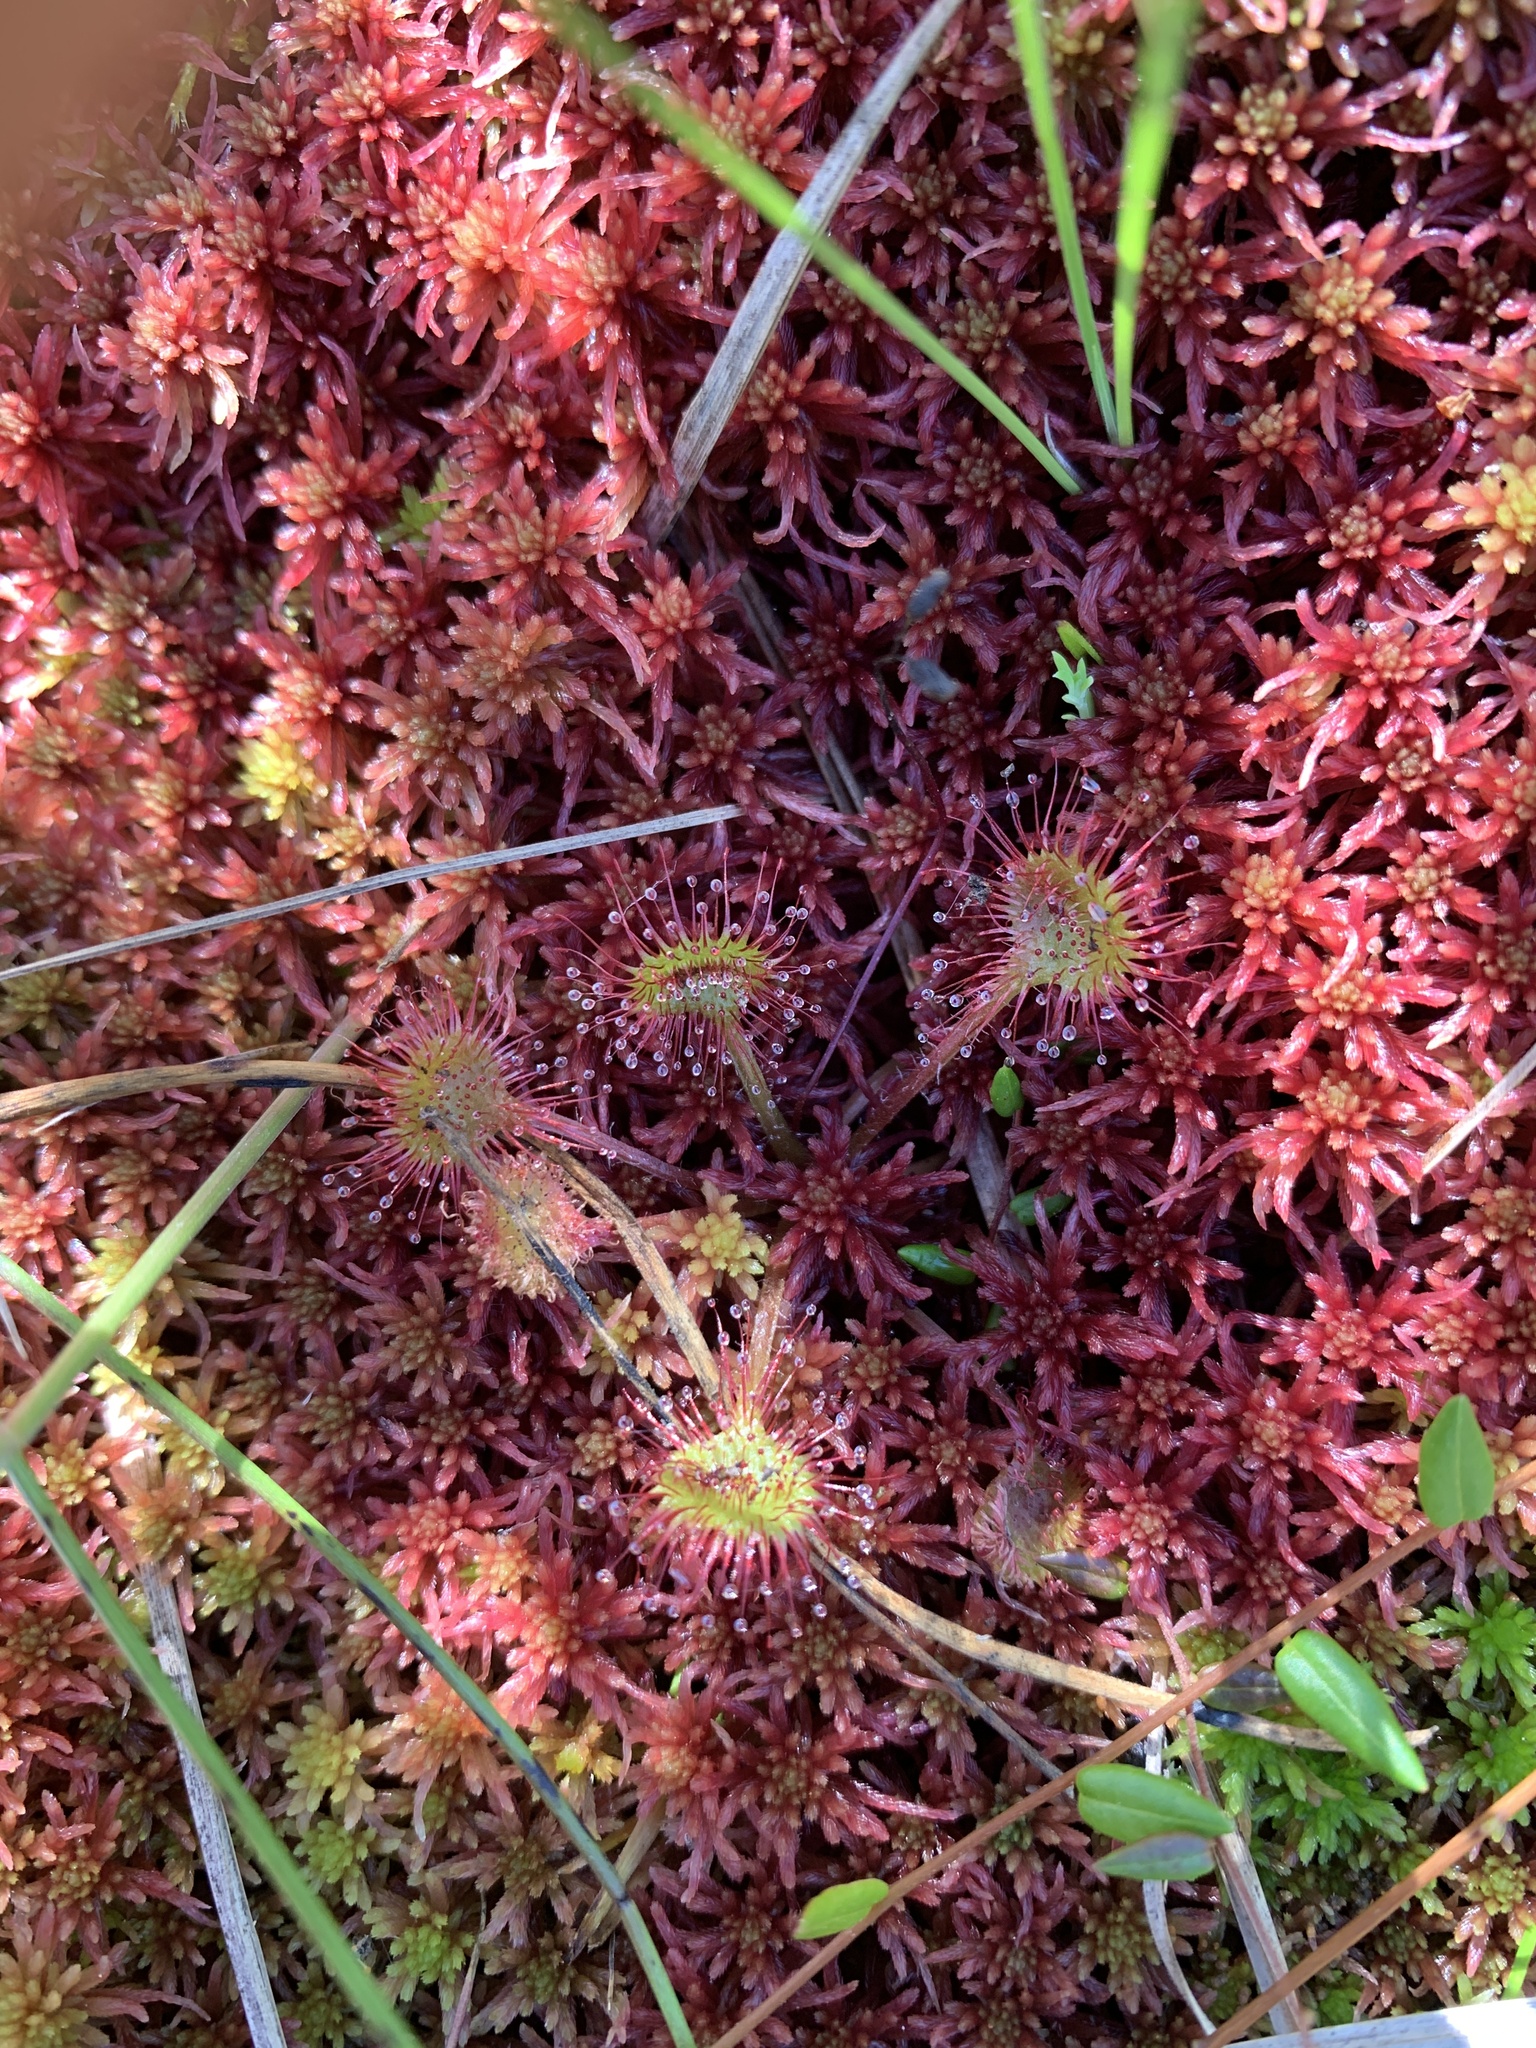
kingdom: Plantae
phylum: Bryophyta
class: Sphagnopsida
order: Sphagnales
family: Sphagnaceae
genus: Sphagnum
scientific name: Sphagnum warnstorfii
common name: Warnstorf's peat moss
